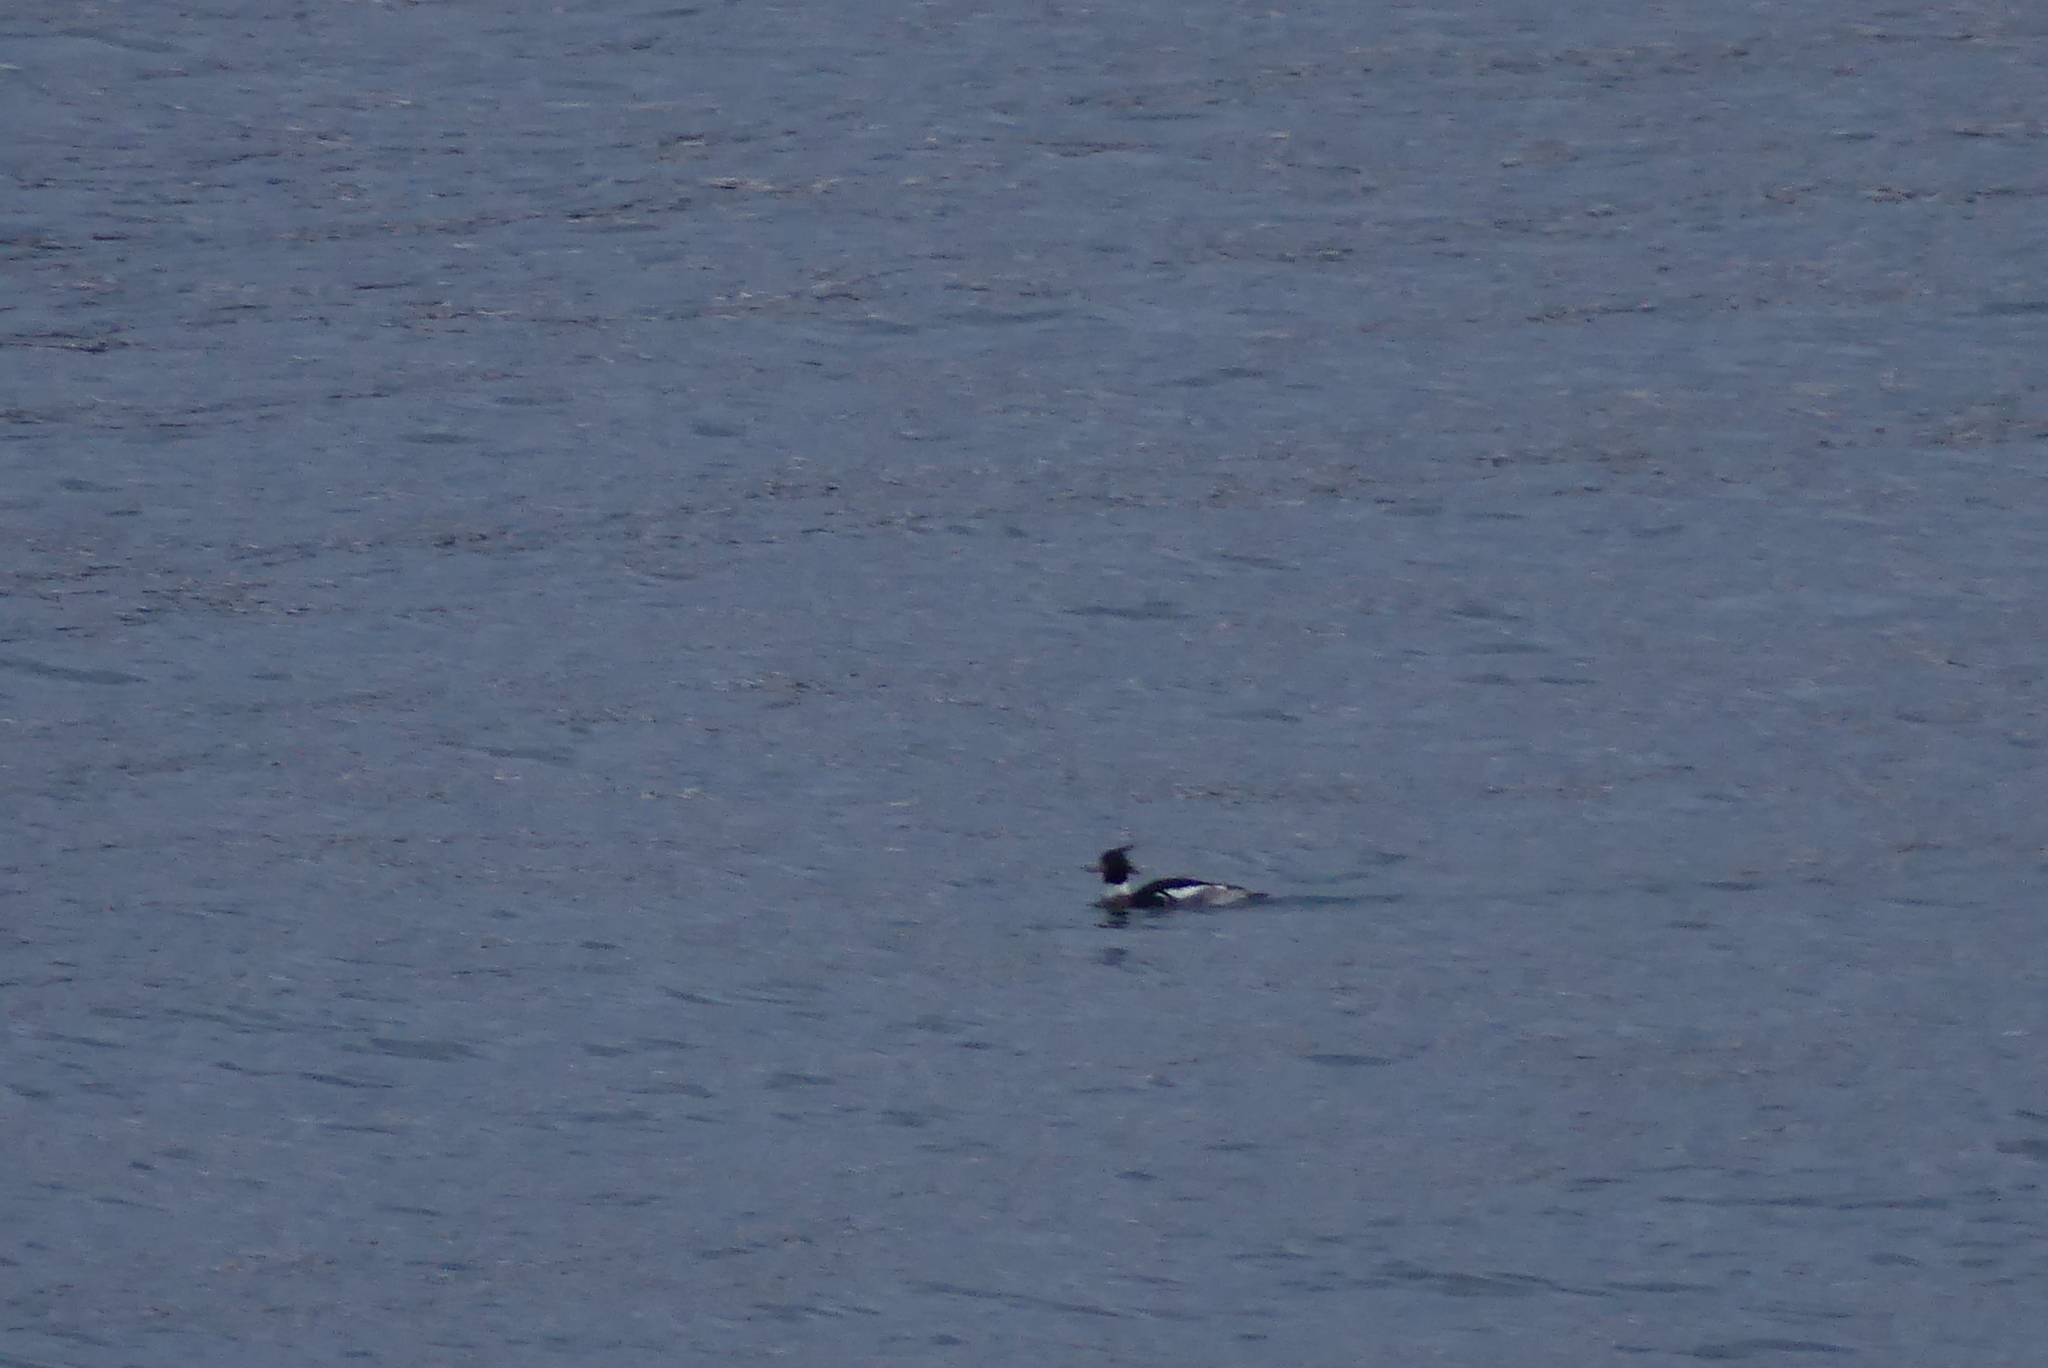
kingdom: Animalia
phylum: Chordata
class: Aves
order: Anseriformes
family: Anatidae
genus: Mergus
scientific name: Mergus serrator
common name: Red-breasted merganser
